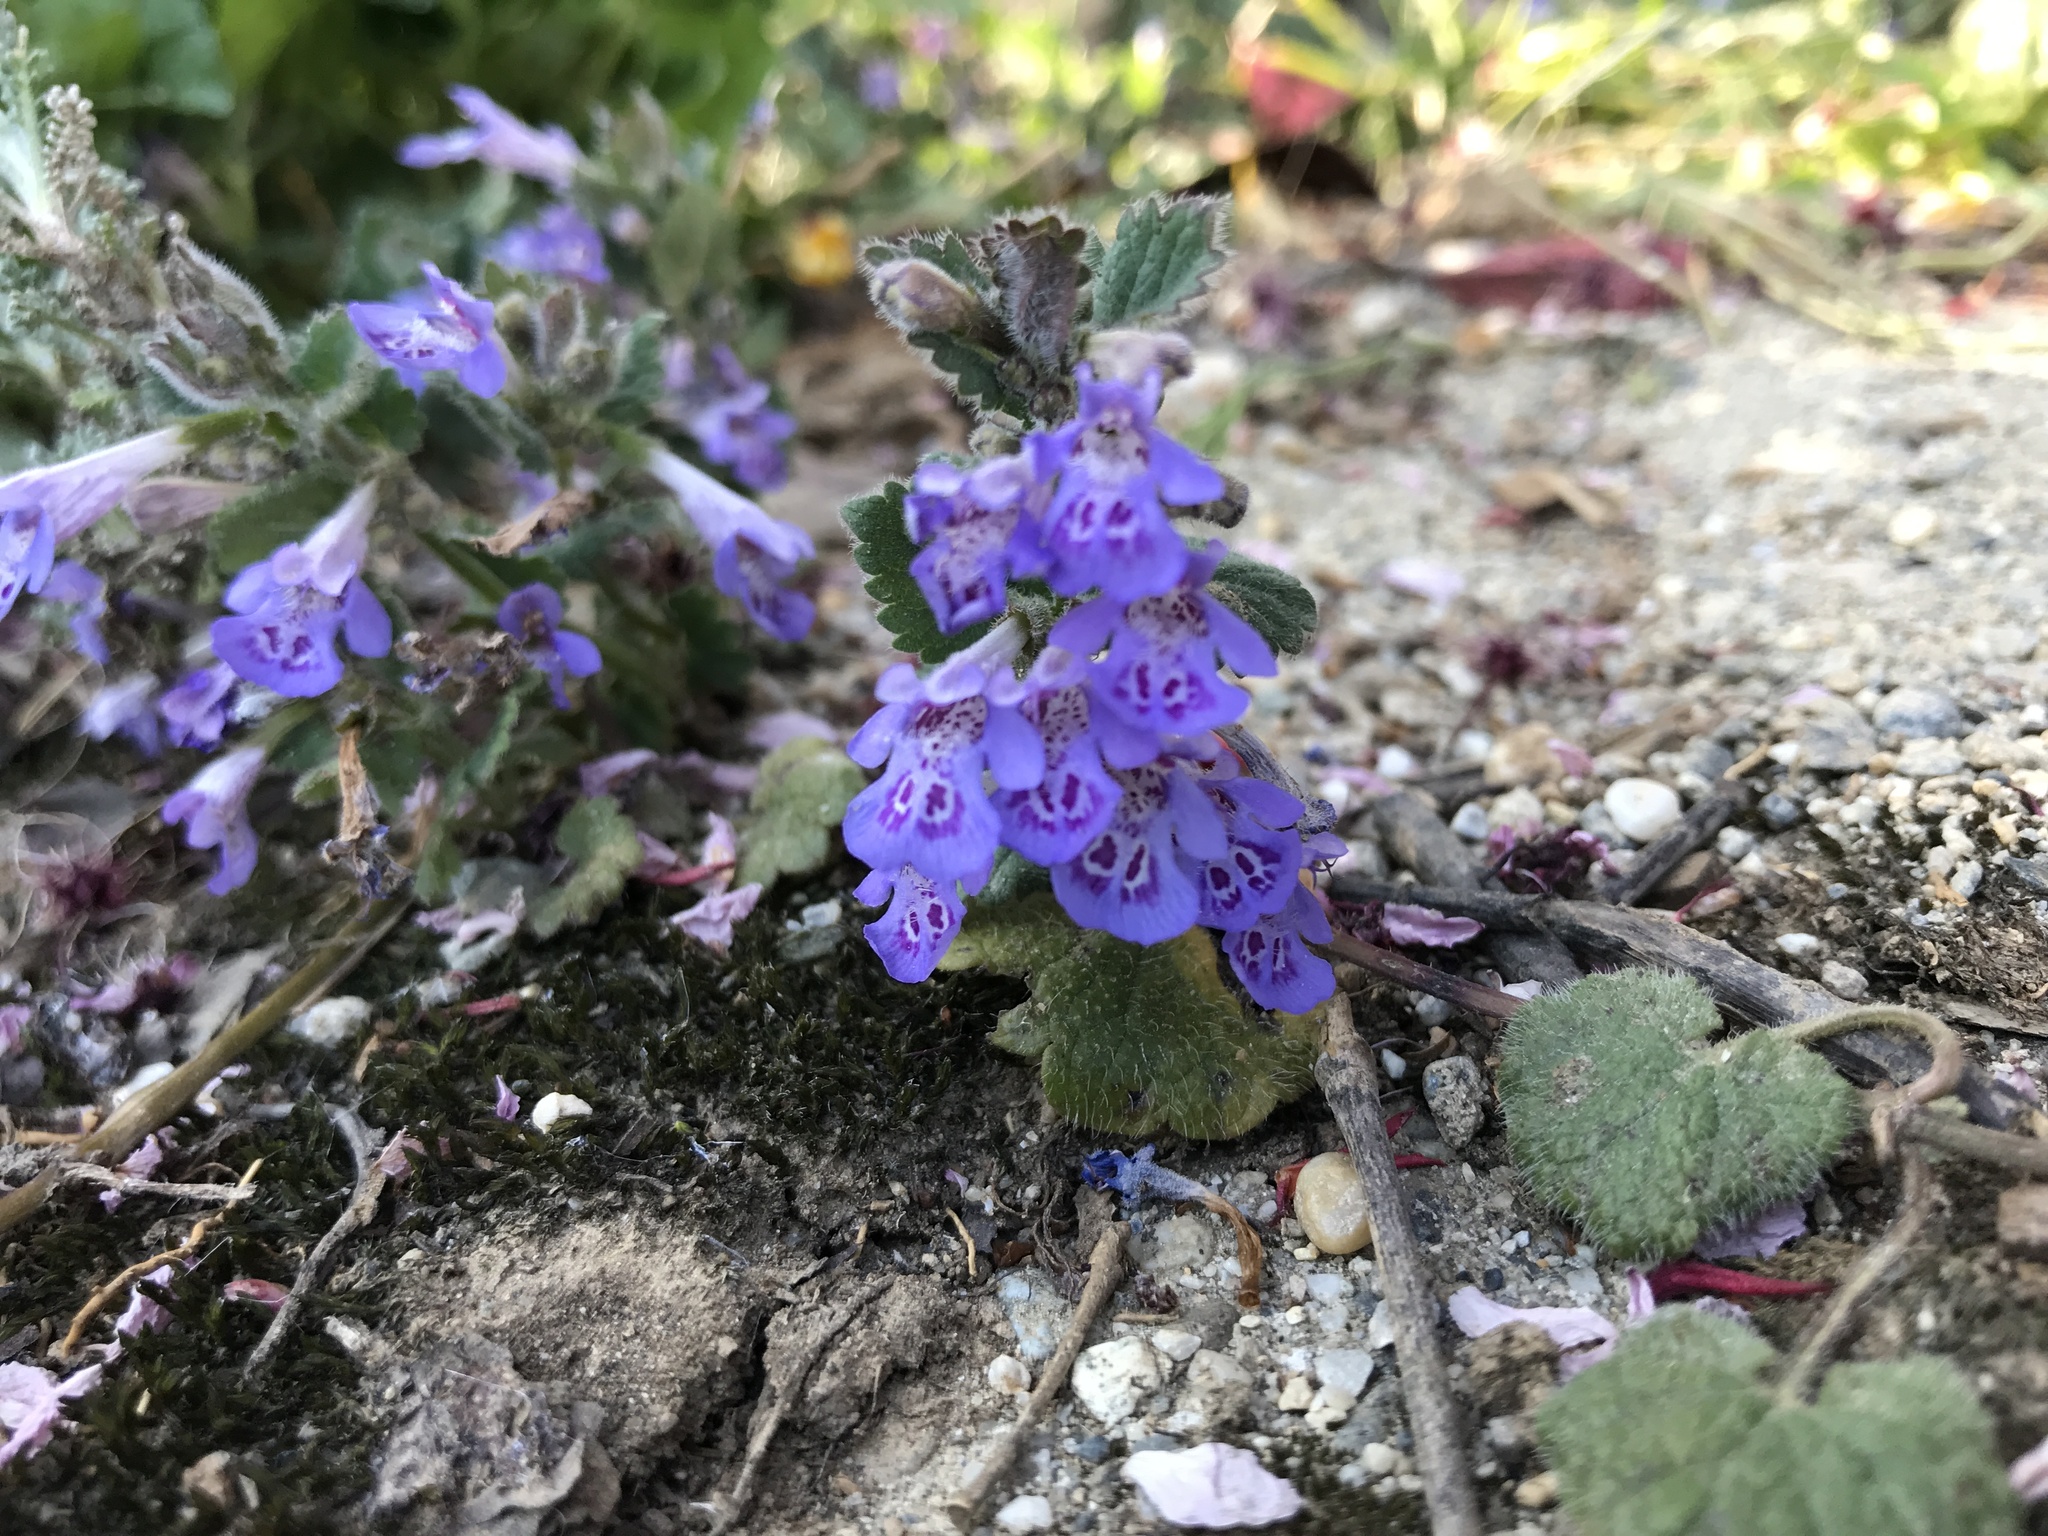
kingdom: Plantae
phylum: Tracheophyta
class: Magnoliopsida
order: Lamiales
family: Lamiaceae
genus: Glechoma
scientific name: Glechoma hederacea
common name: Ground ivy
